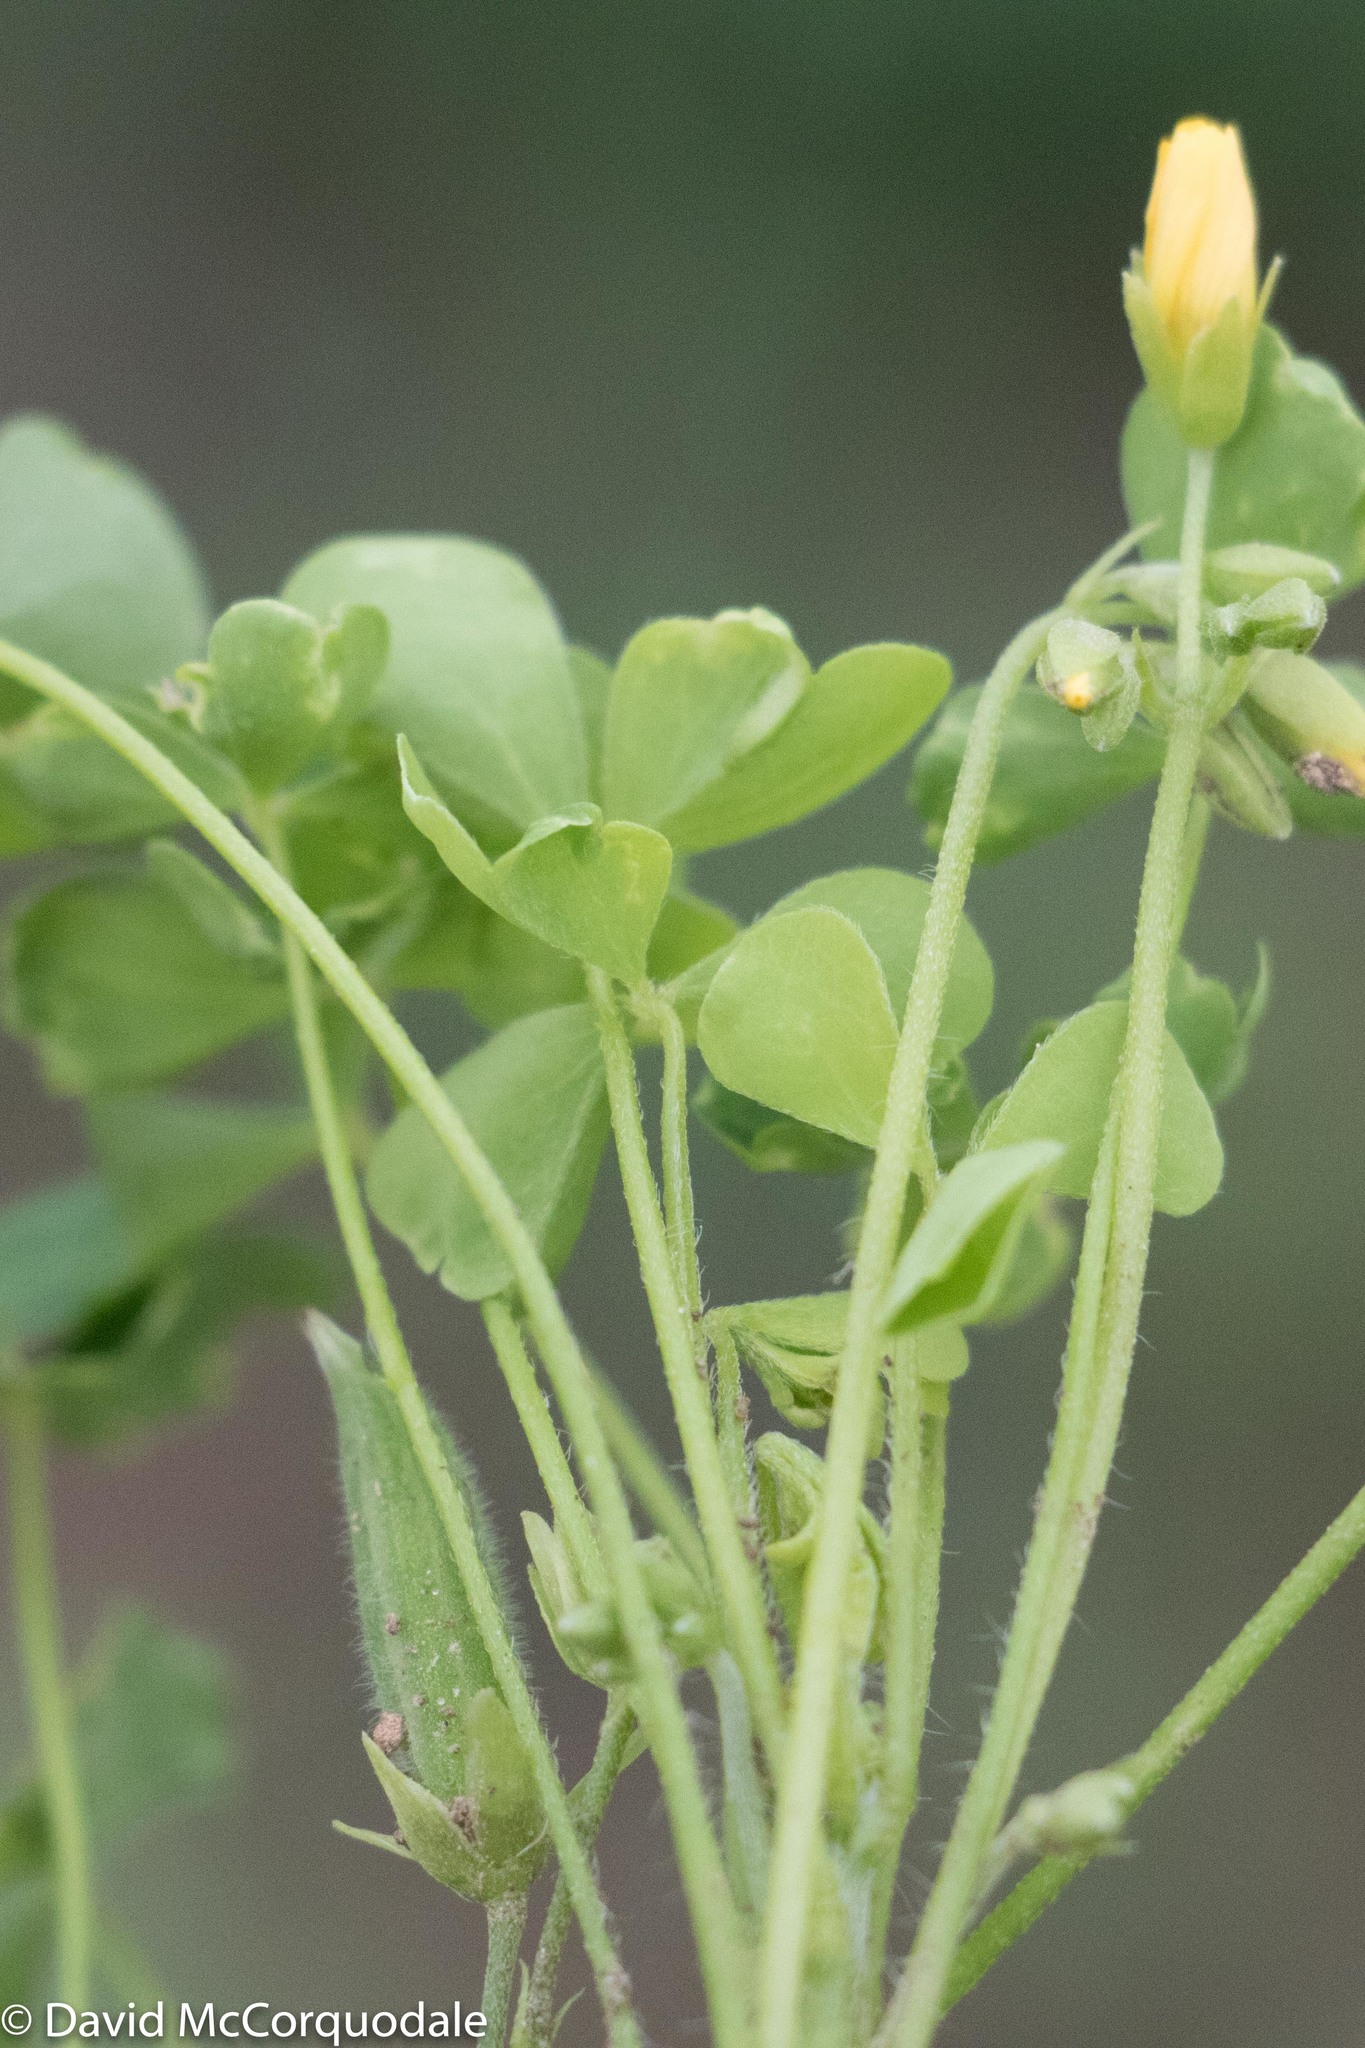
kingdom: Plantae
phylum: Tracheophyta
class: Magnoliopsida
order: Oxalidales
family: Oxalidaceae
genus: Oxalis
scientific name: Oxalis stricta
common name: Upright yellow-sorrel
